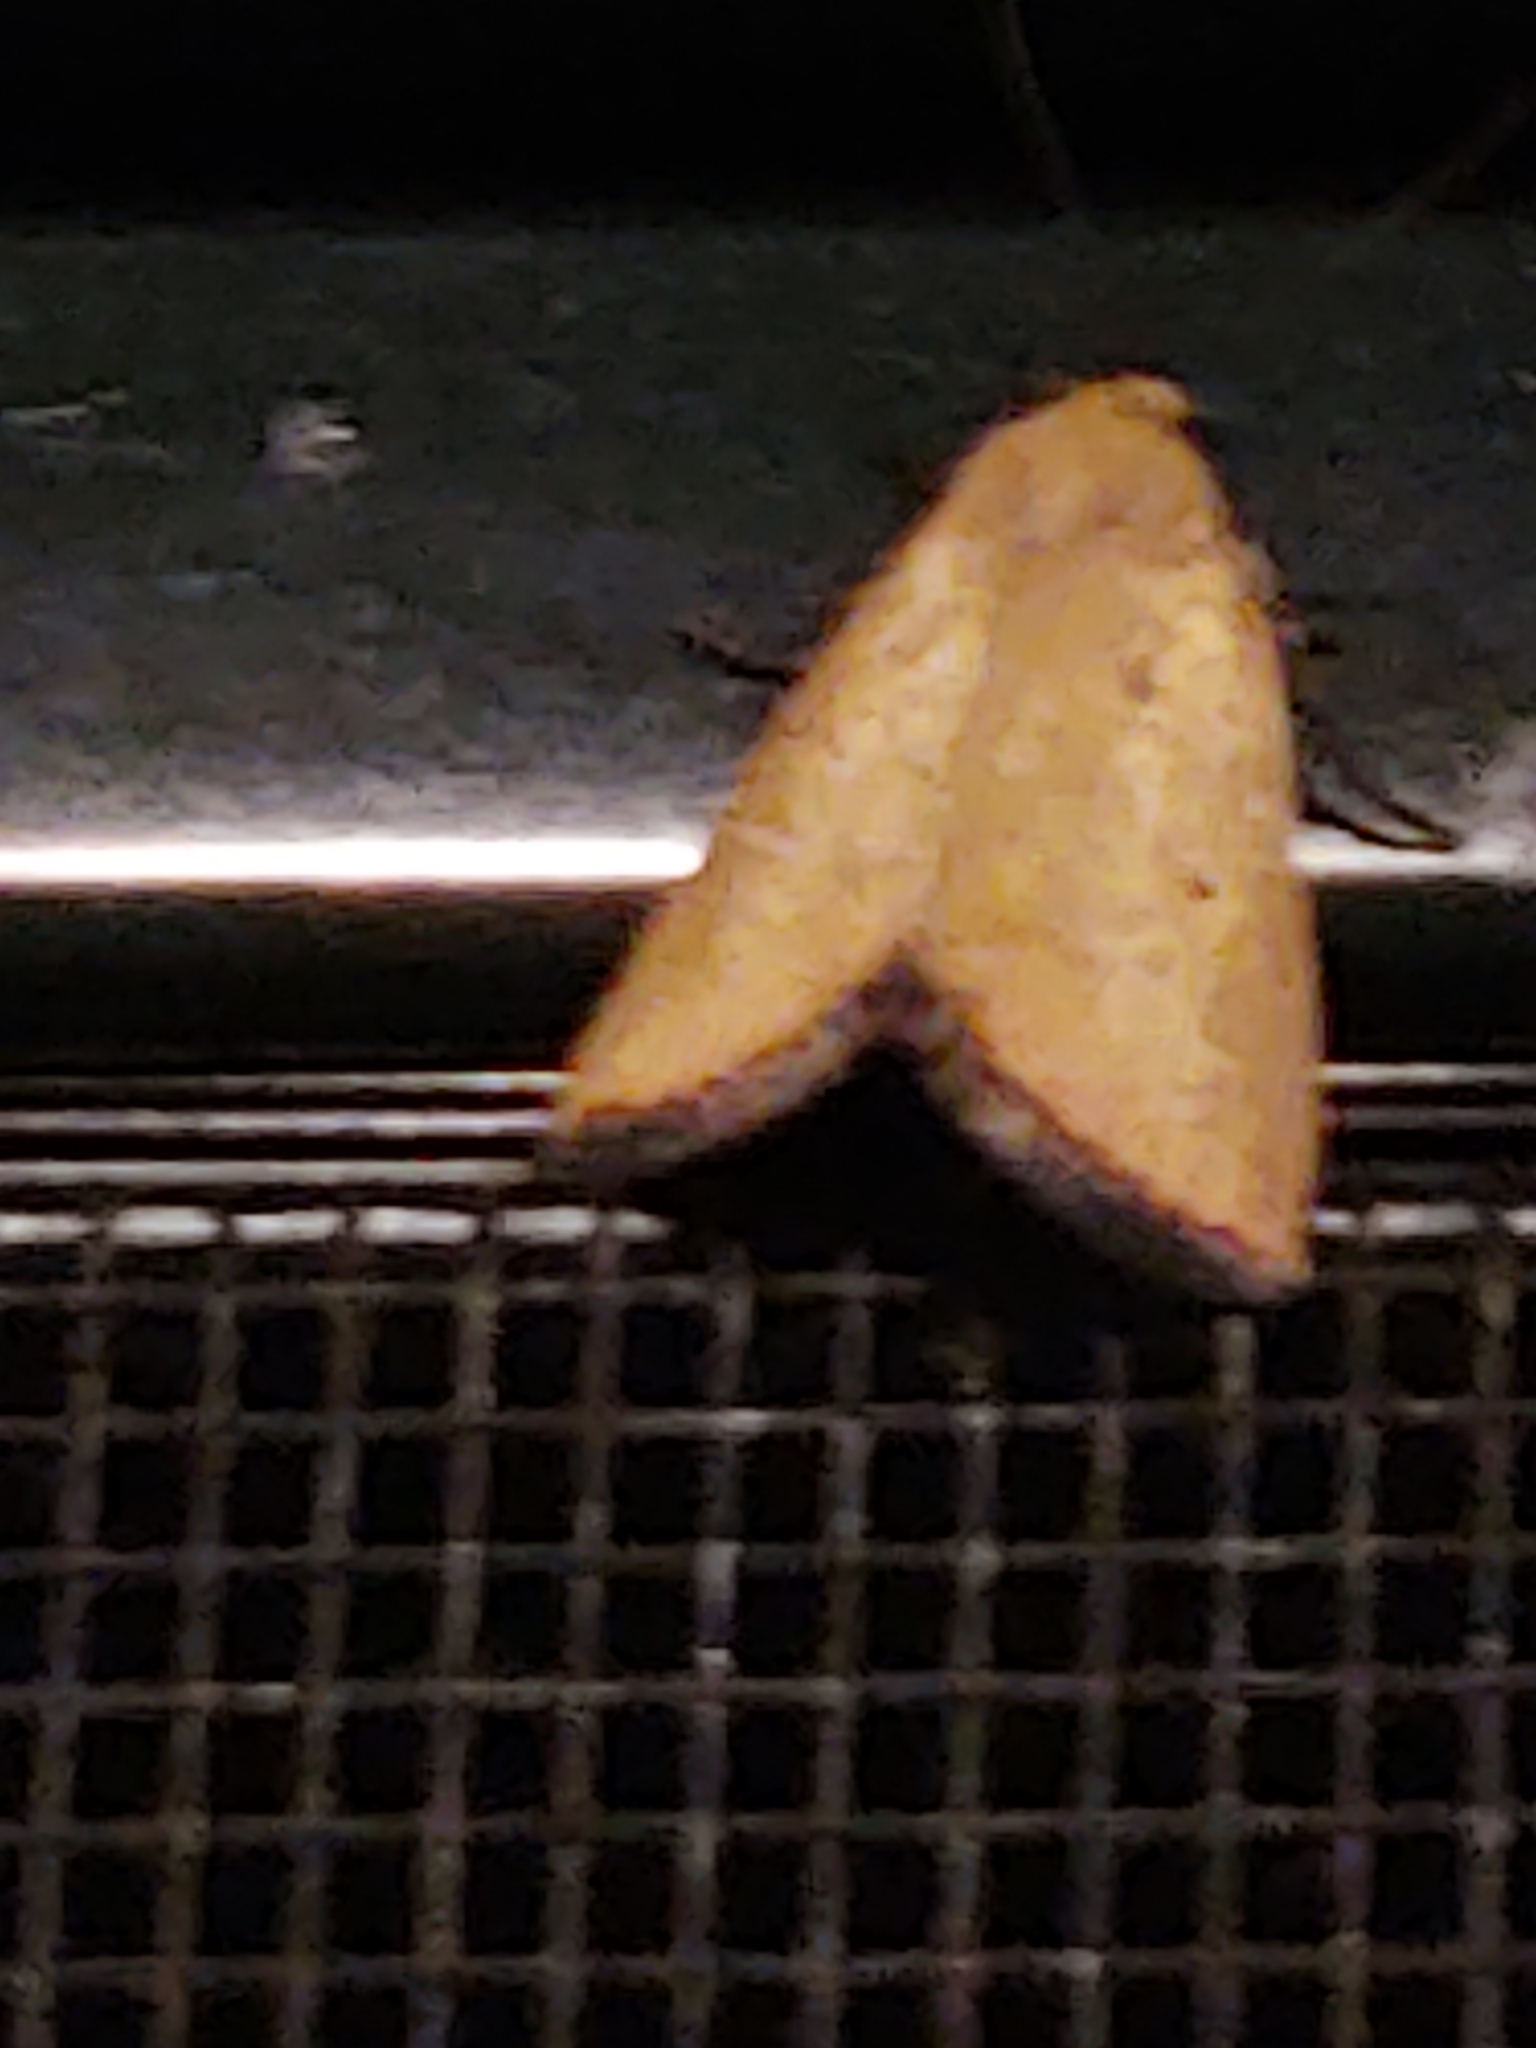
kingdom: Animalia
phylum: Arthropoda
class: Insecta
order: Lepidoptera
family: Noctuidae
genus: Marimatha
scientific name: Marimatha nigrofimbria
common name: Black-bordered lemon moth
